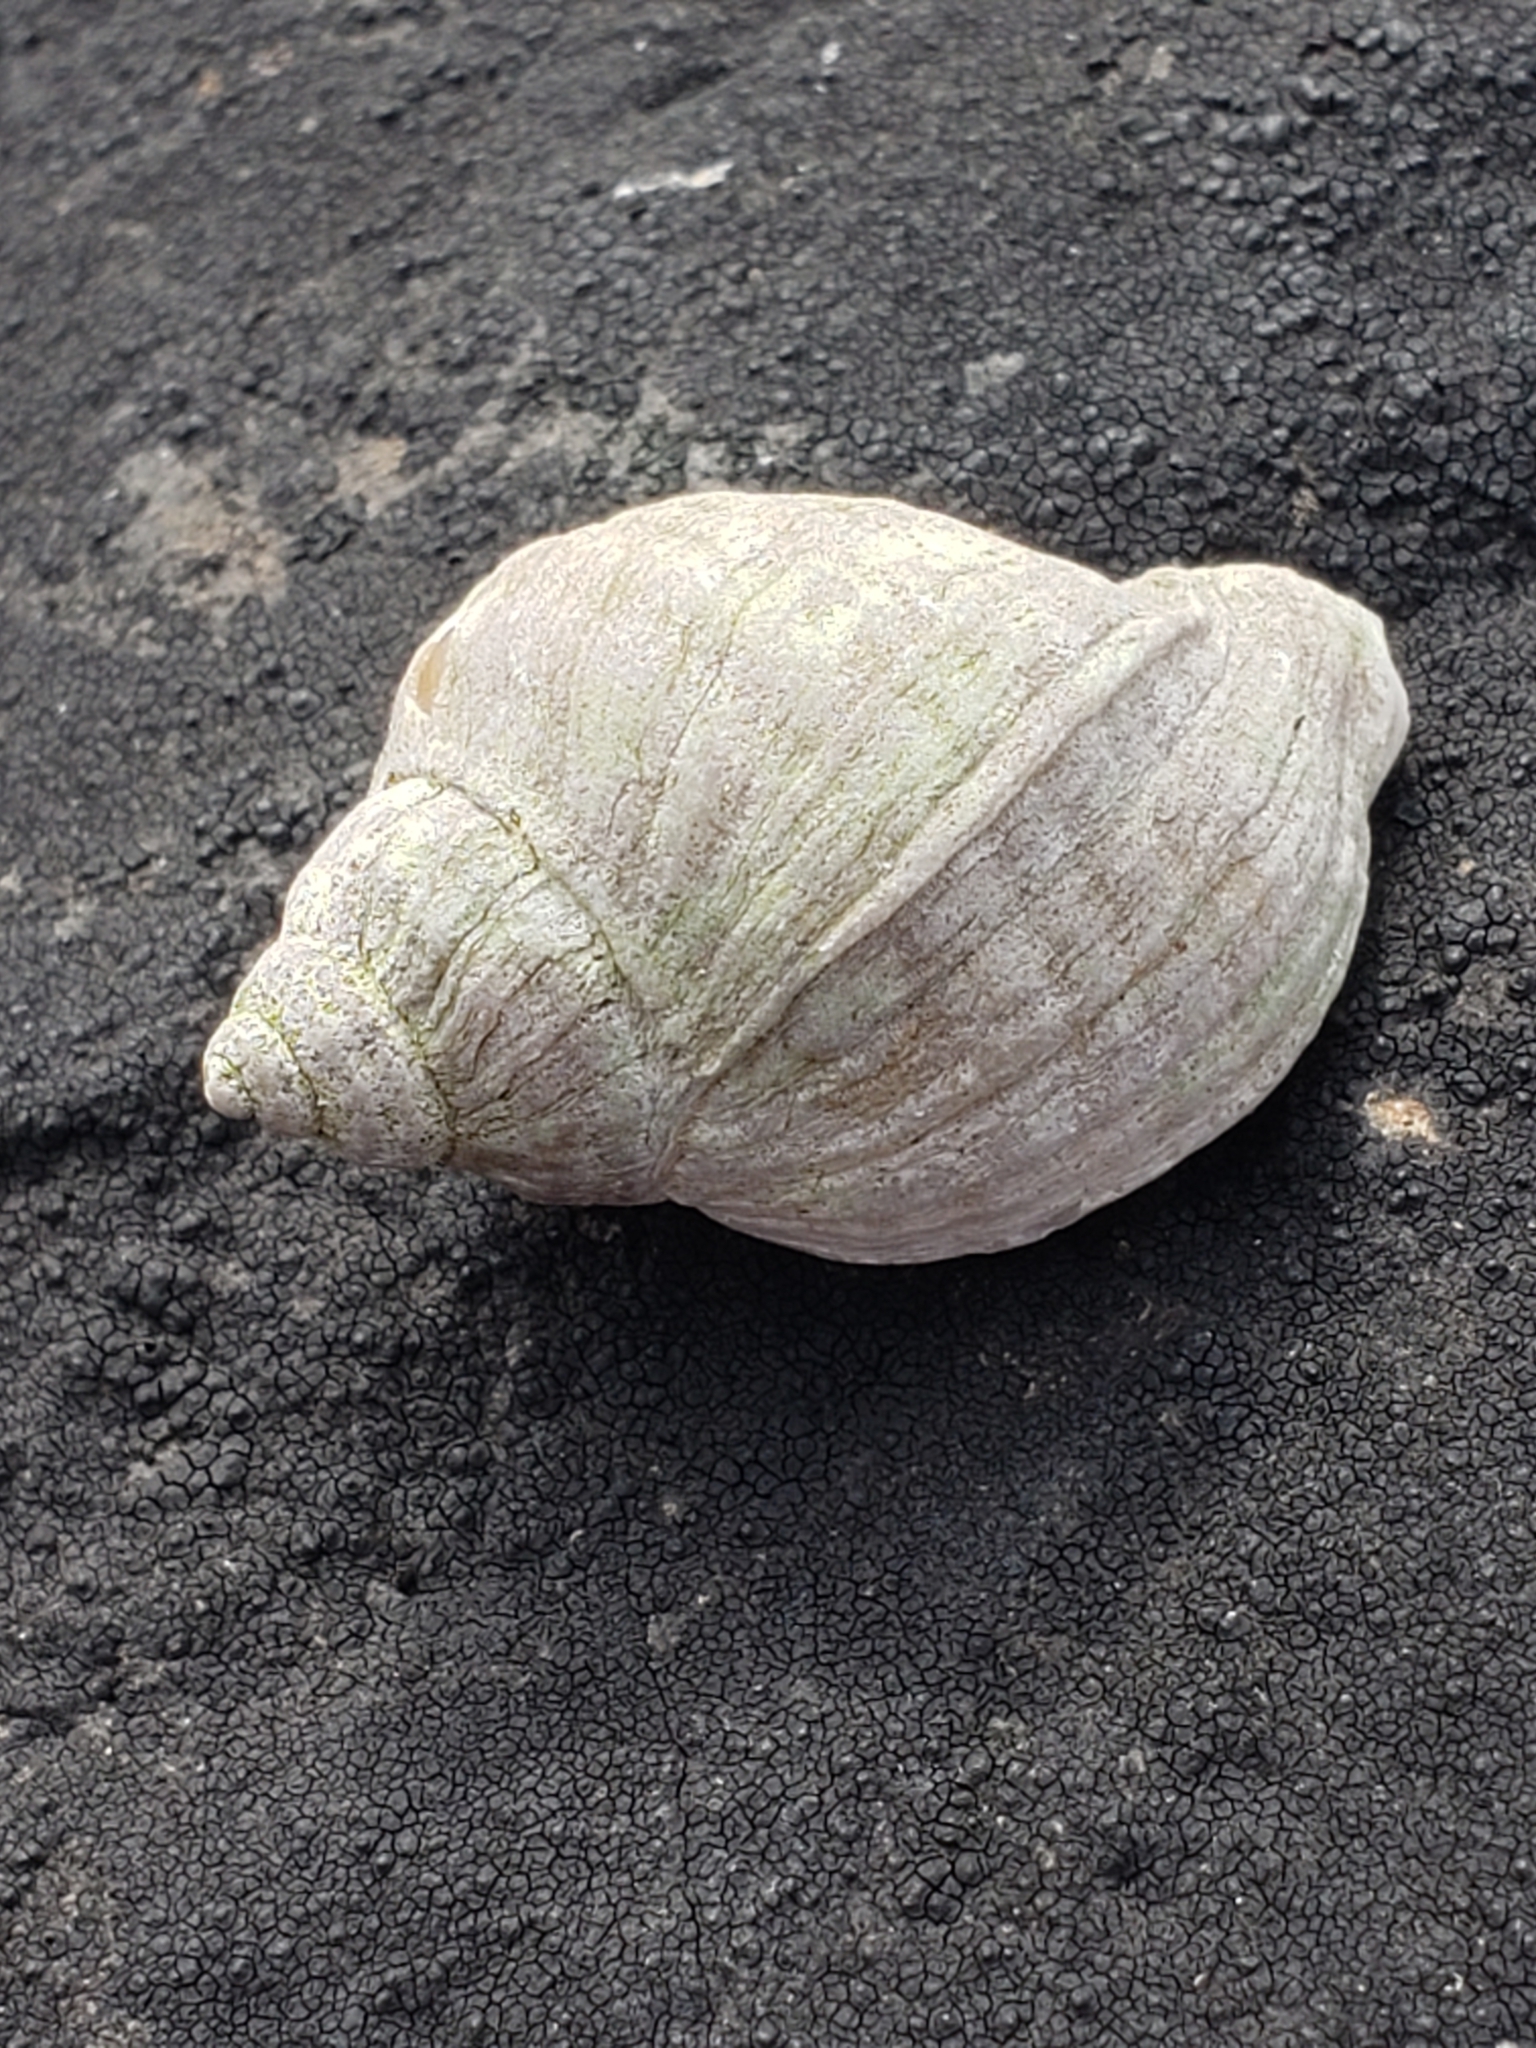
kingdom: Animalia
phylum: Mollusca
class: Gastropoda
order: Neogastropoda
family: Muricidae
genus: Nucella
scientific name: Nucella lapillus
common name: Dog whelk
